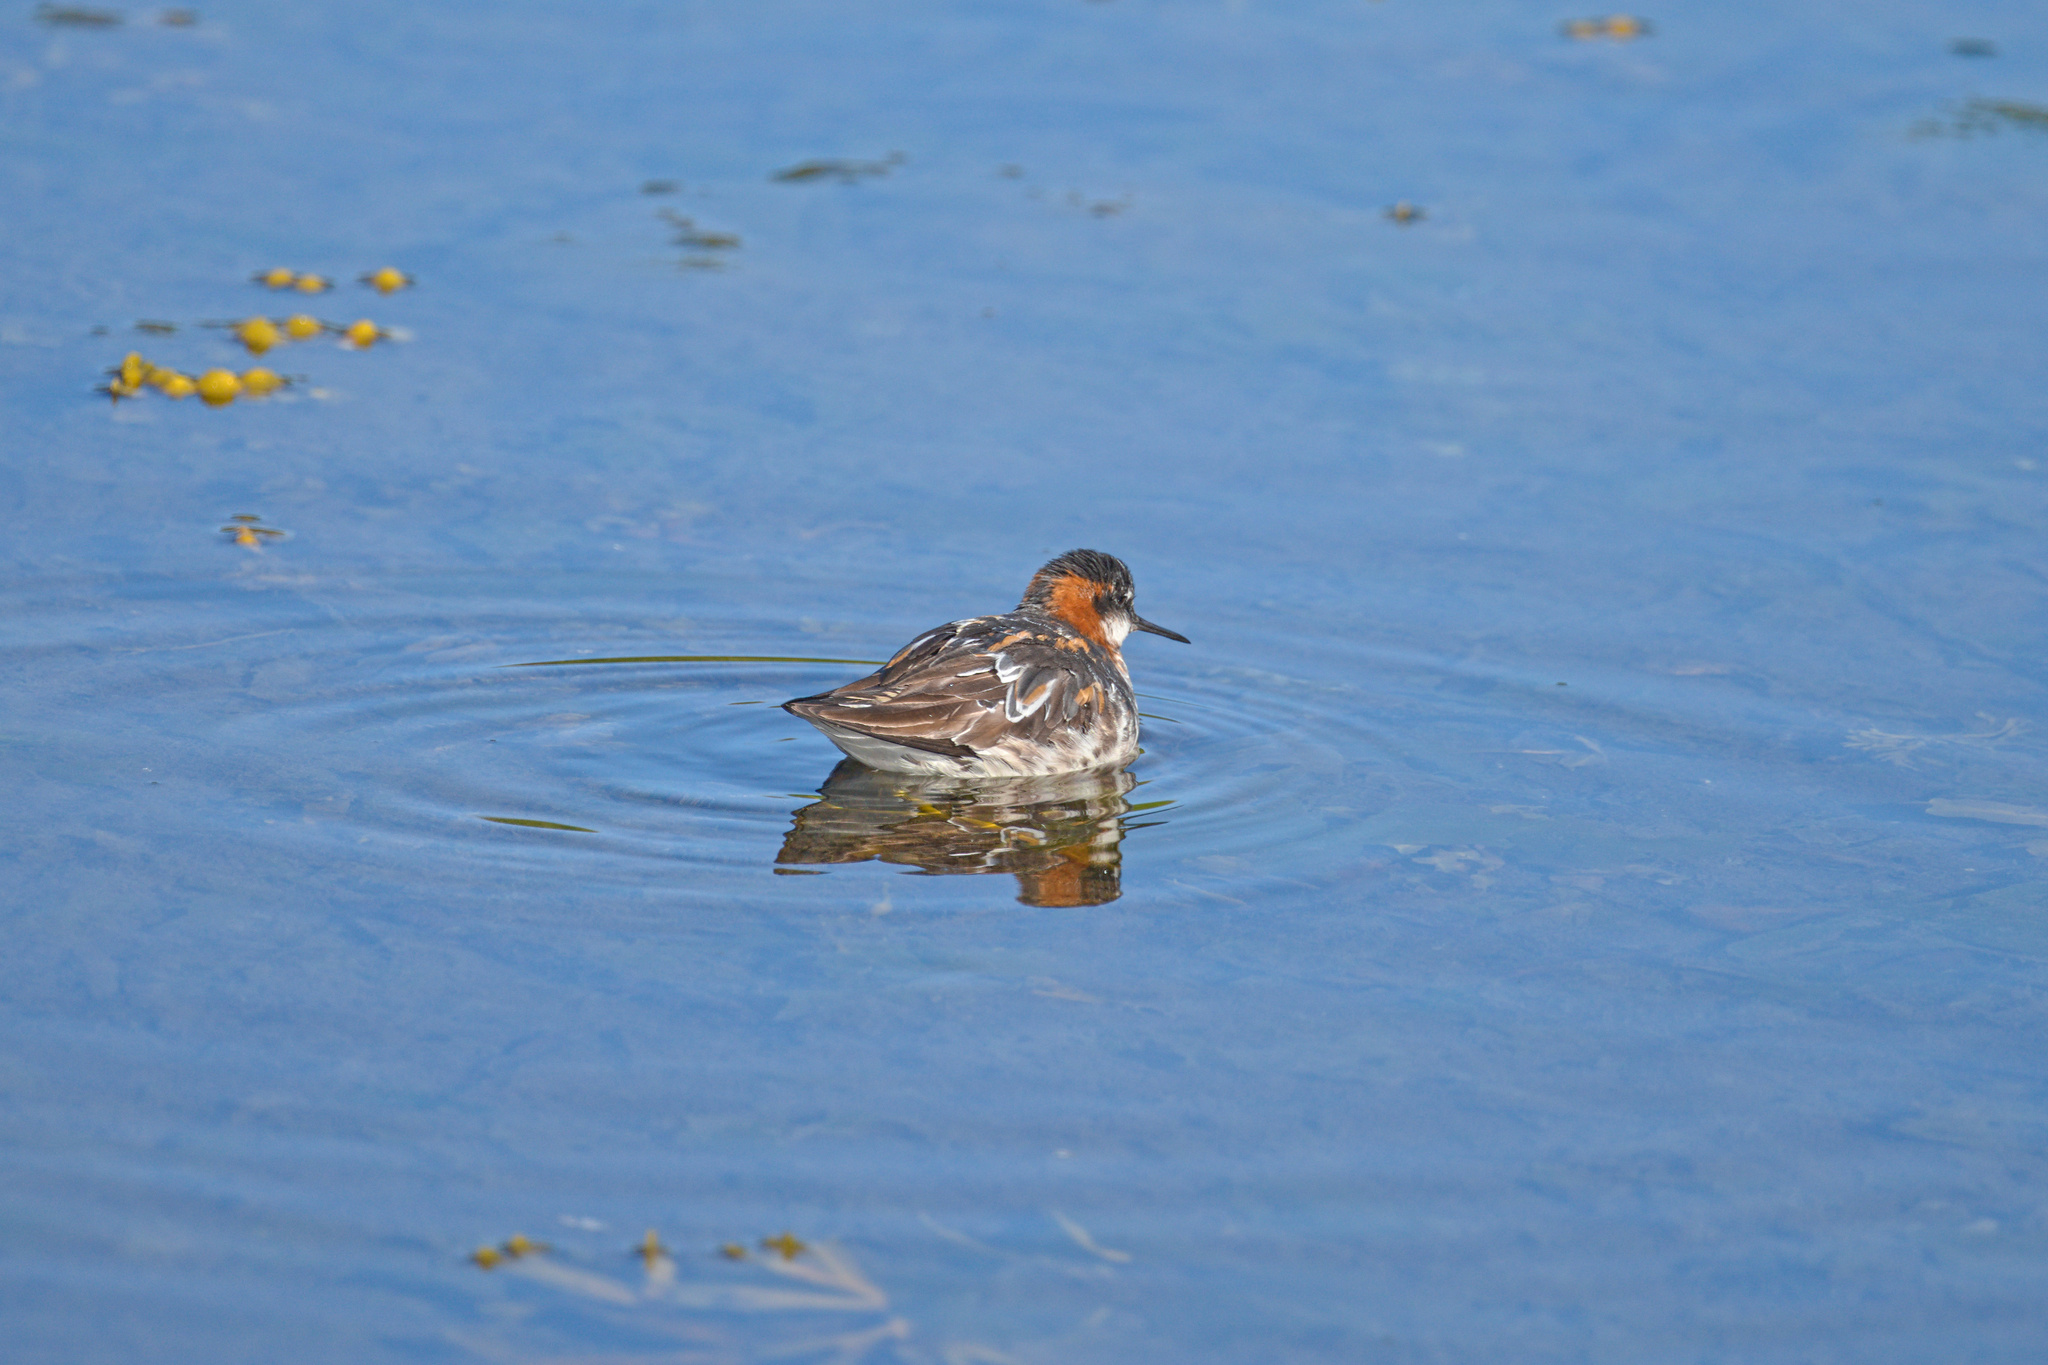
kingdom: Animalia
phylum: Chordata
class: Aves
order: Charadriiformes
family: Scolopacidae
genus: Phalaropus
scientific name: Phalaropus lobatus
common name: Red-necked phalarope
